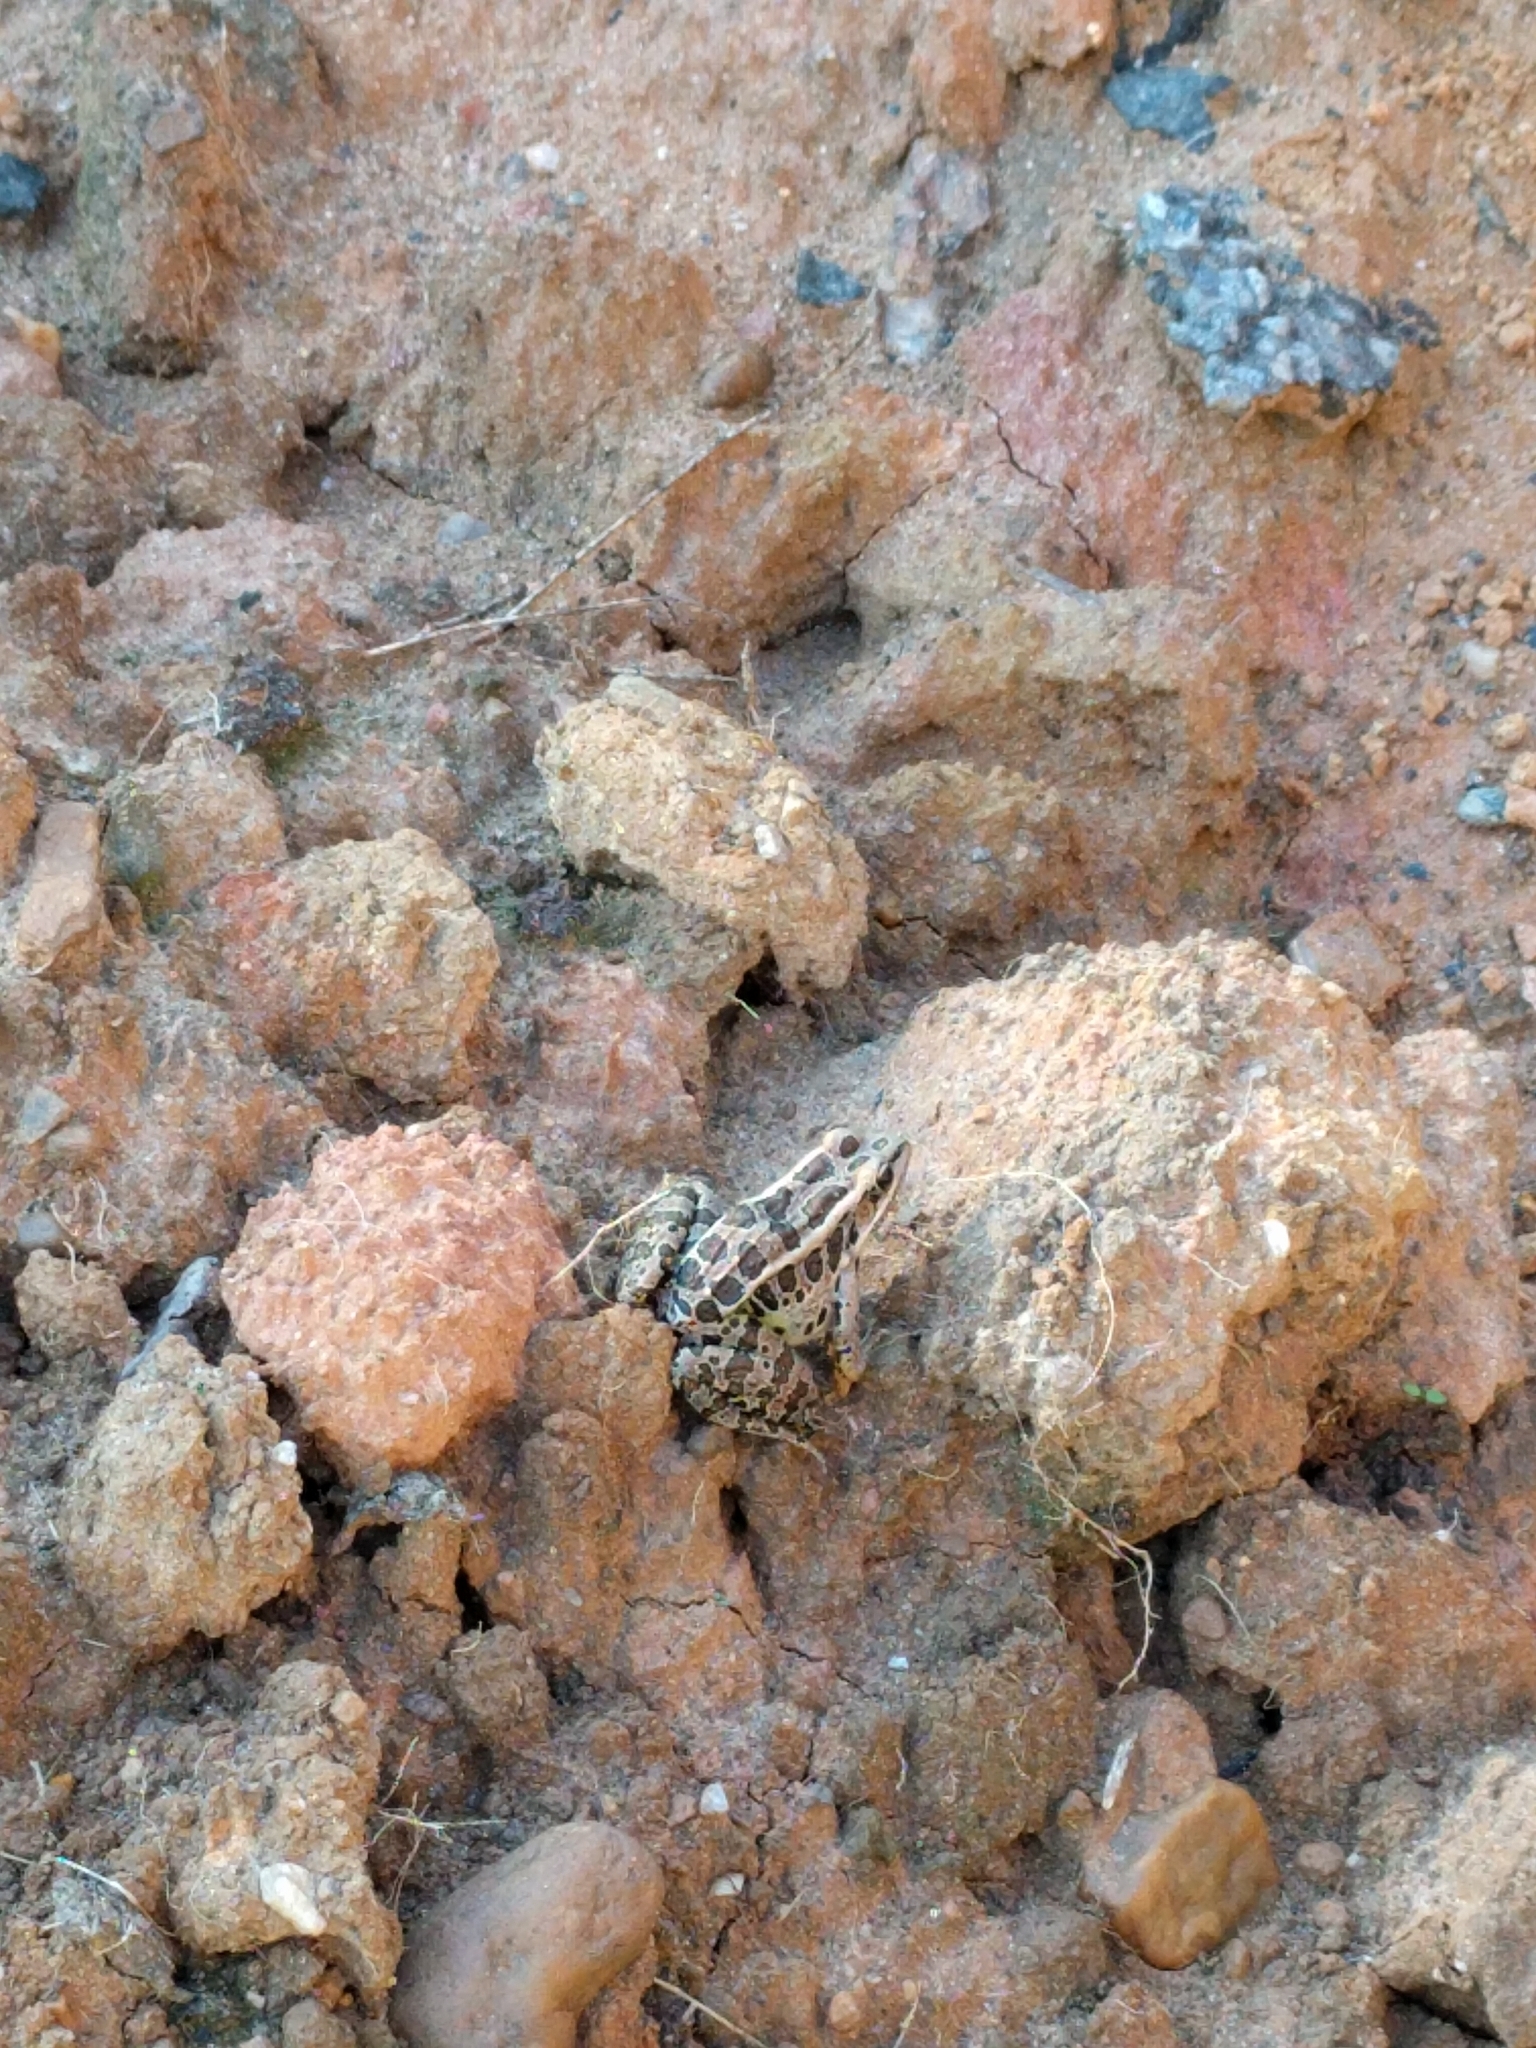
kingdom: Animalia
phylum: Chordata
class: Amphibia
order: Anura
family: Ranidae
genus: Lithobates
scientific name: Lithobates palustris
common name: Pickerel frog
